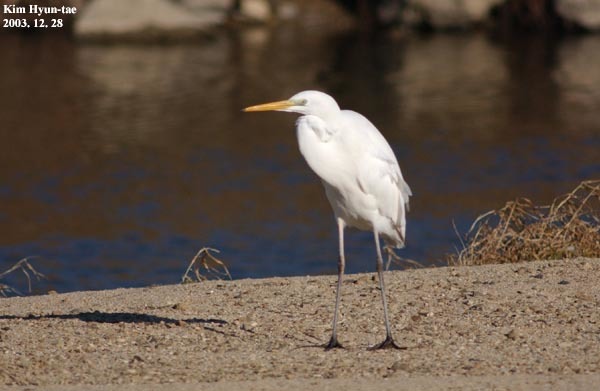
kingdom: Animalia
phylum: Chordata
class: Aves
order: Pelecaniformes
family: Ardeidae
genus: Ardea
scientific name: Ardea alba
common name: Great egret
